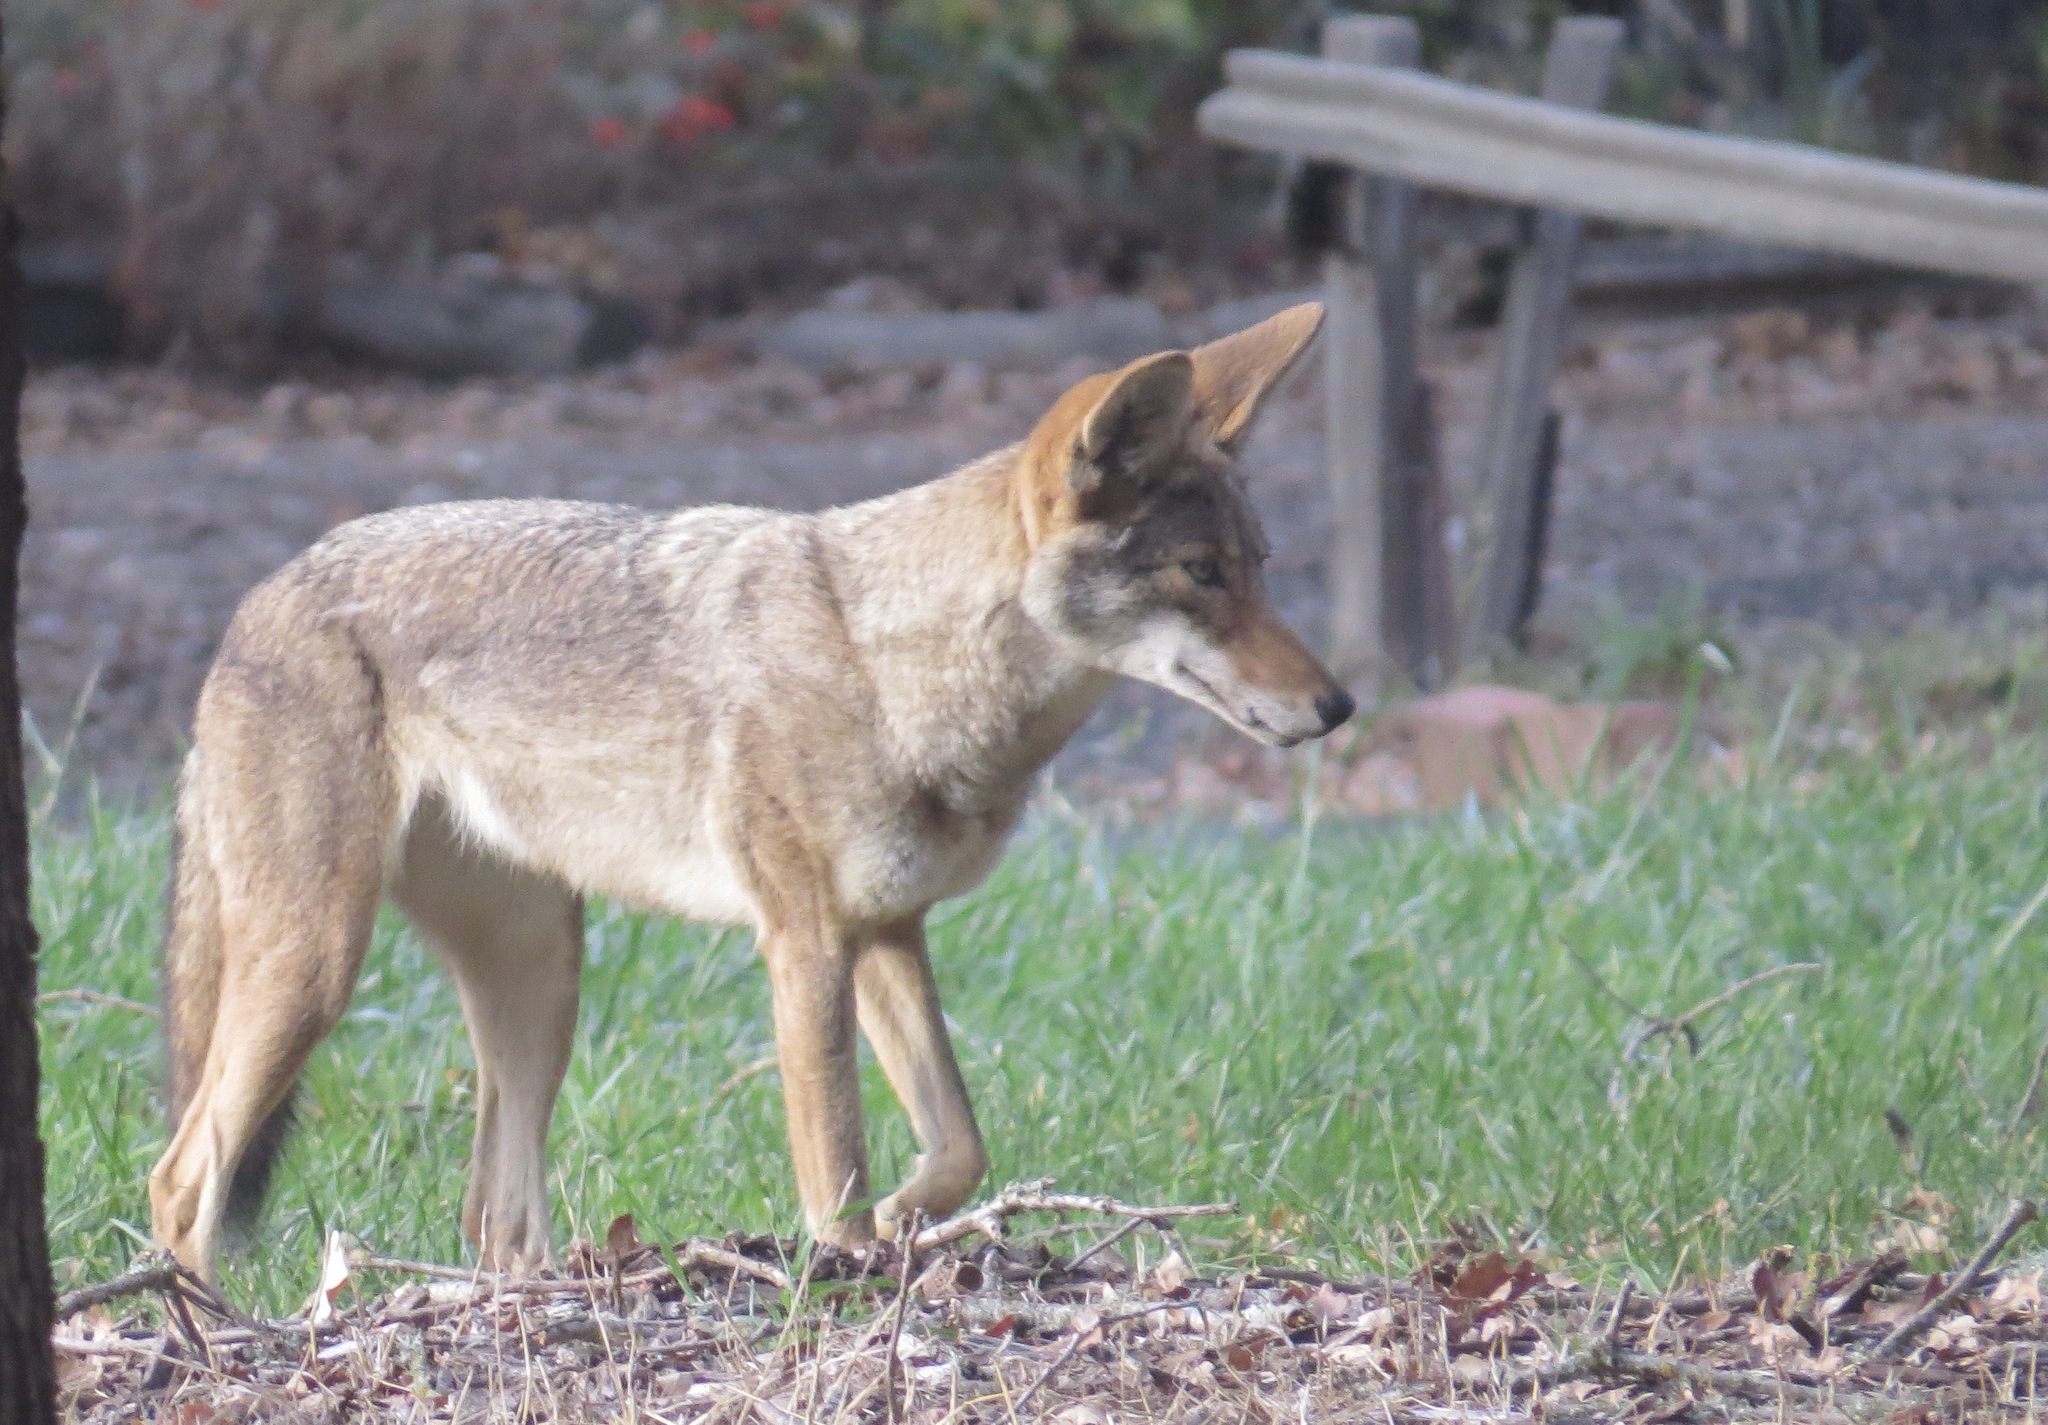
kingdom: Animalia
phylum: Chordata
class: Mammalia
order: Carnivora
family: Canidae
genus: Canis
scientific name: Canis latrans
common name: Coyote
